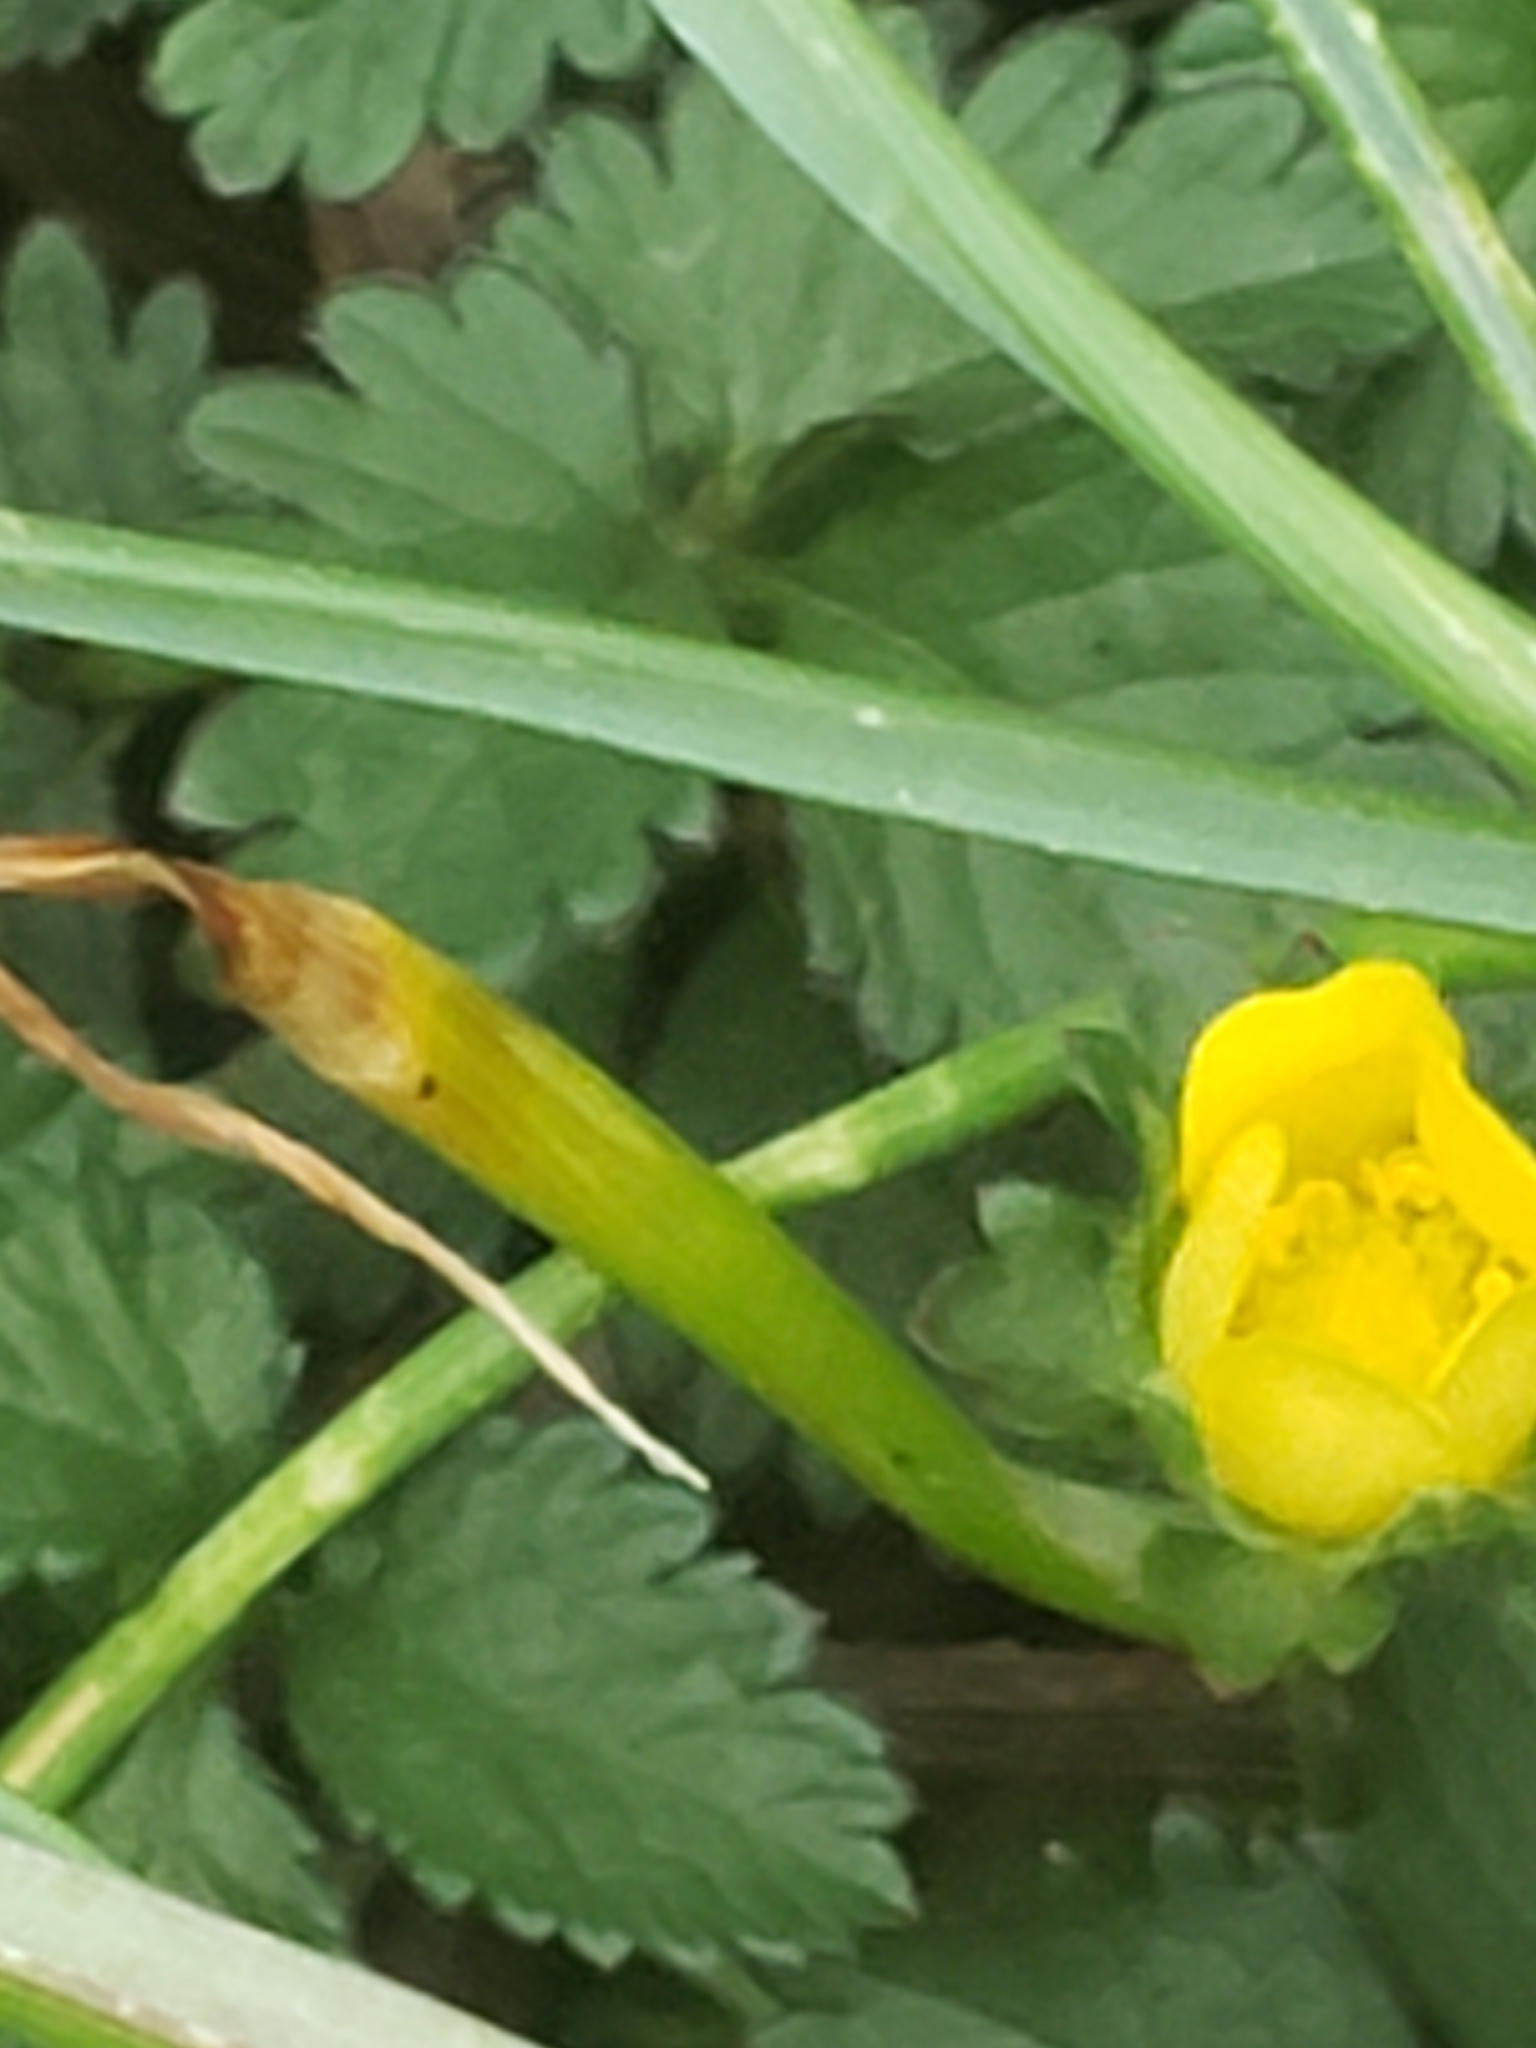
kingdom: Plantae
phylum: Tracheophyta
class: Magnoliopsida
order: Rosales
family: Rosaceae
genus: Potentilla
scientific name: Potentilla indica
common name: Yellow-flowered strawberry
